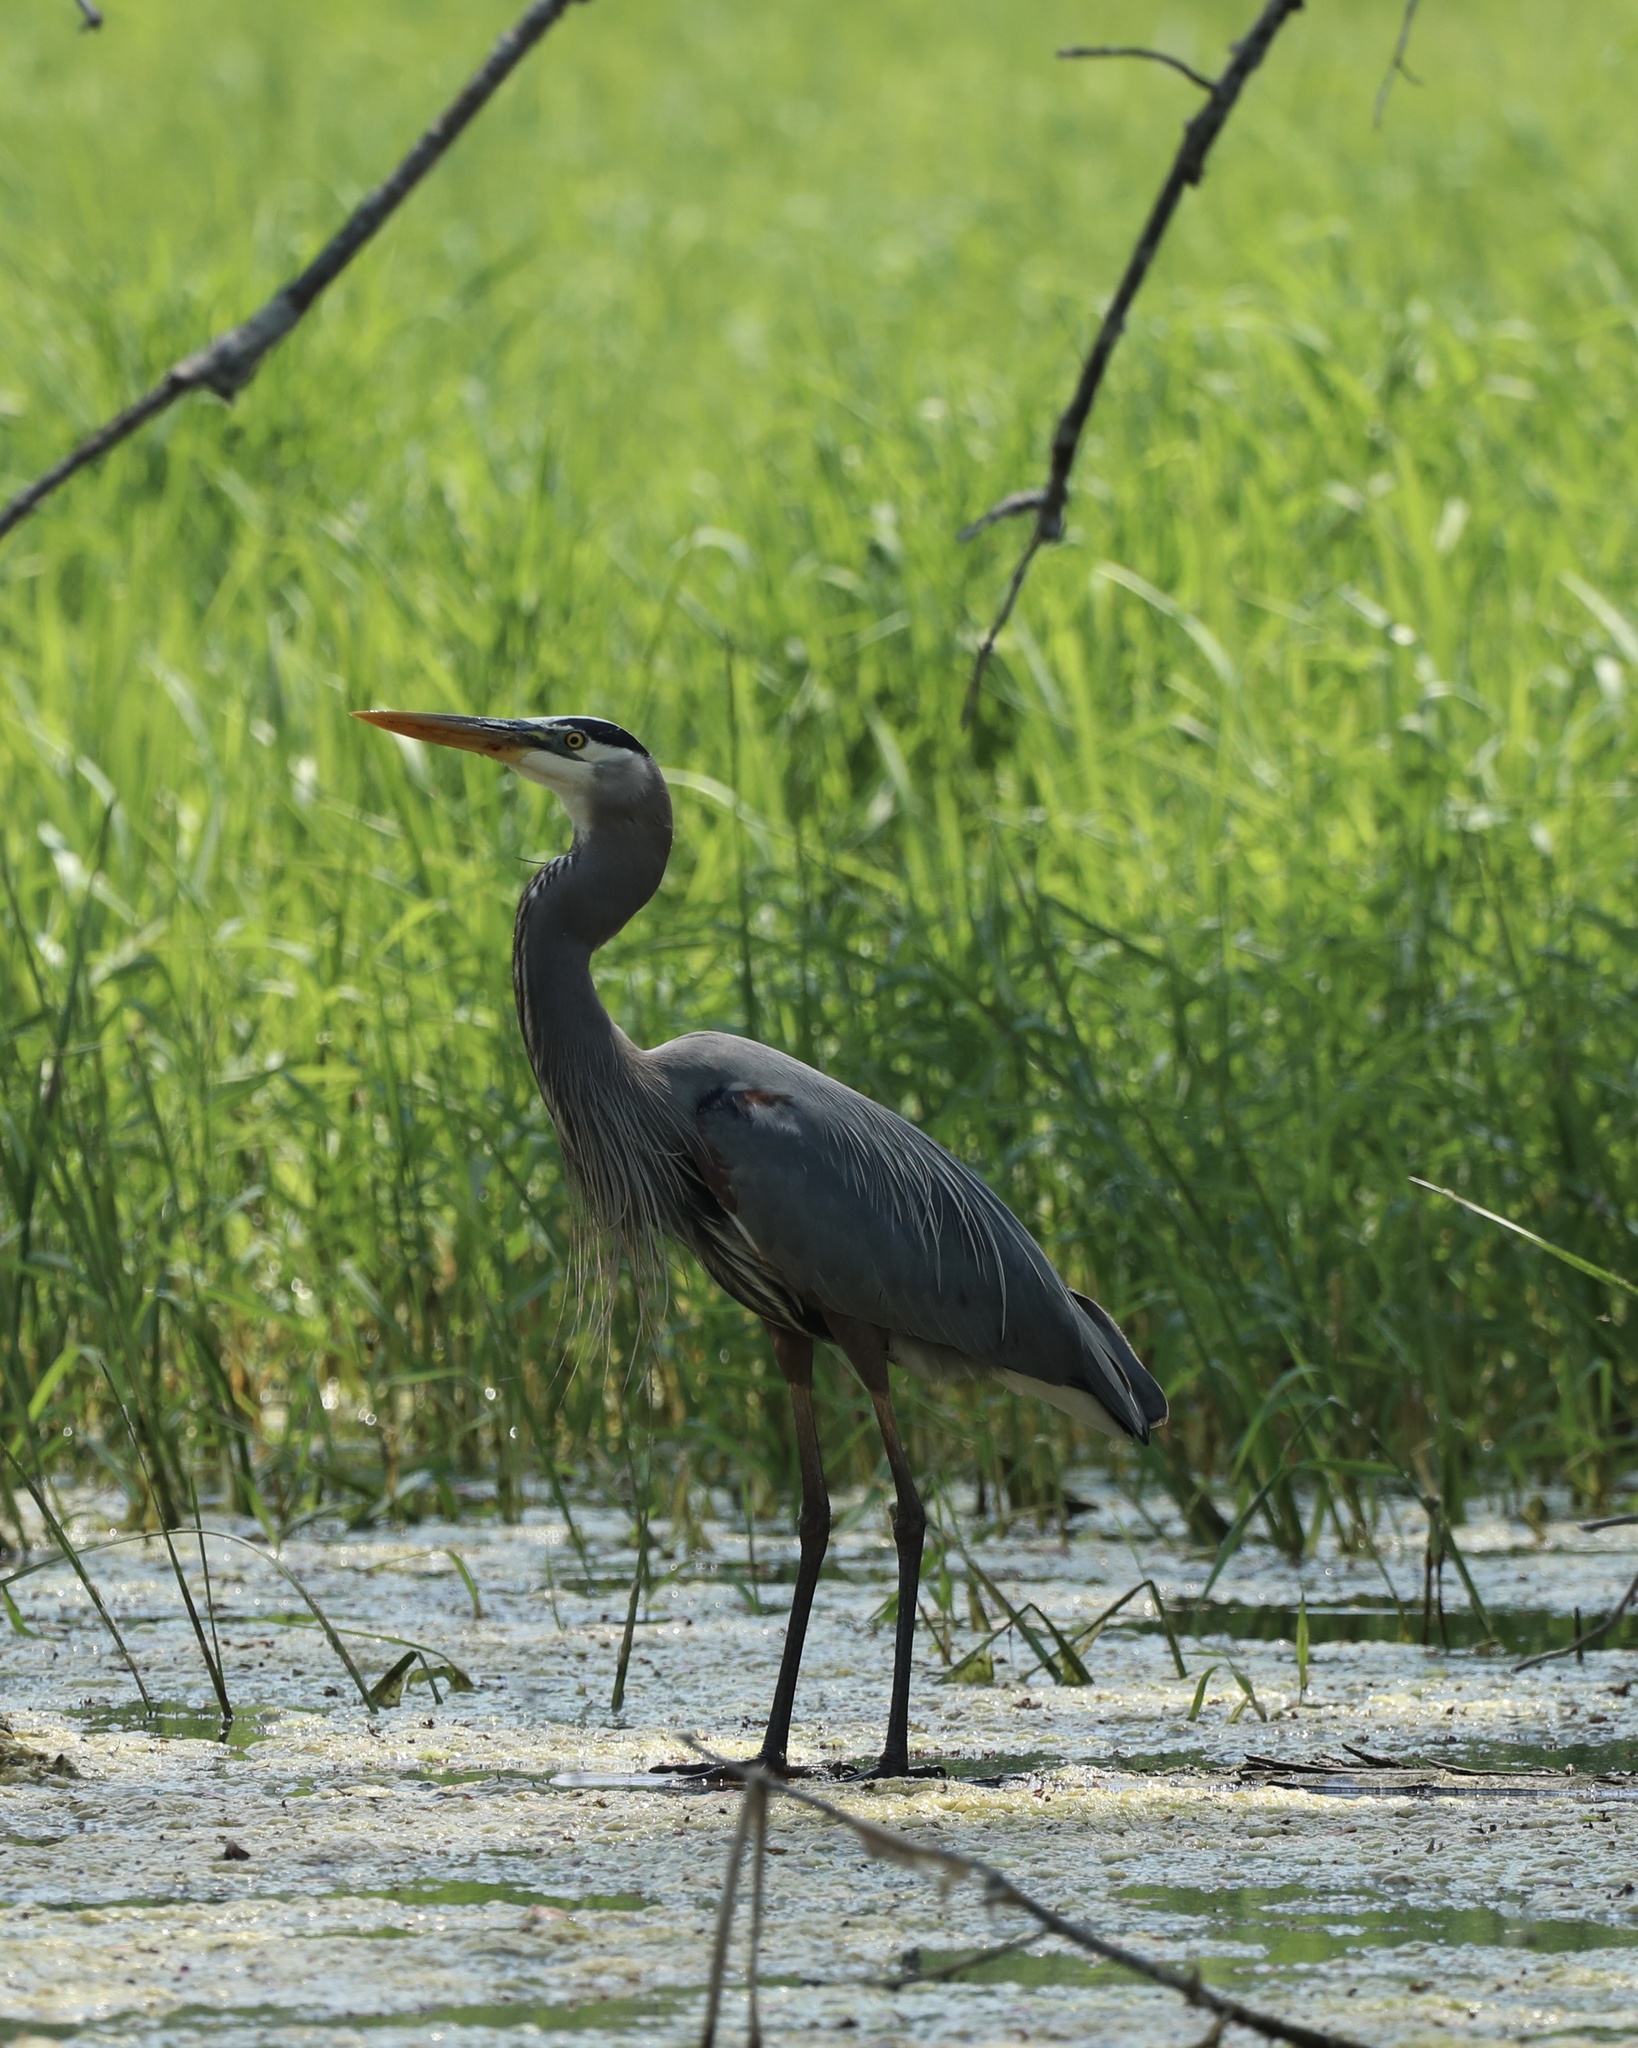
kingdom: Animalia
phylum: Chordata
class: Aves
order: Pelecaniformes
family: Ardeidae
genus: Ardea
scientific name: Ardea herodias
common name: Great blue heron
